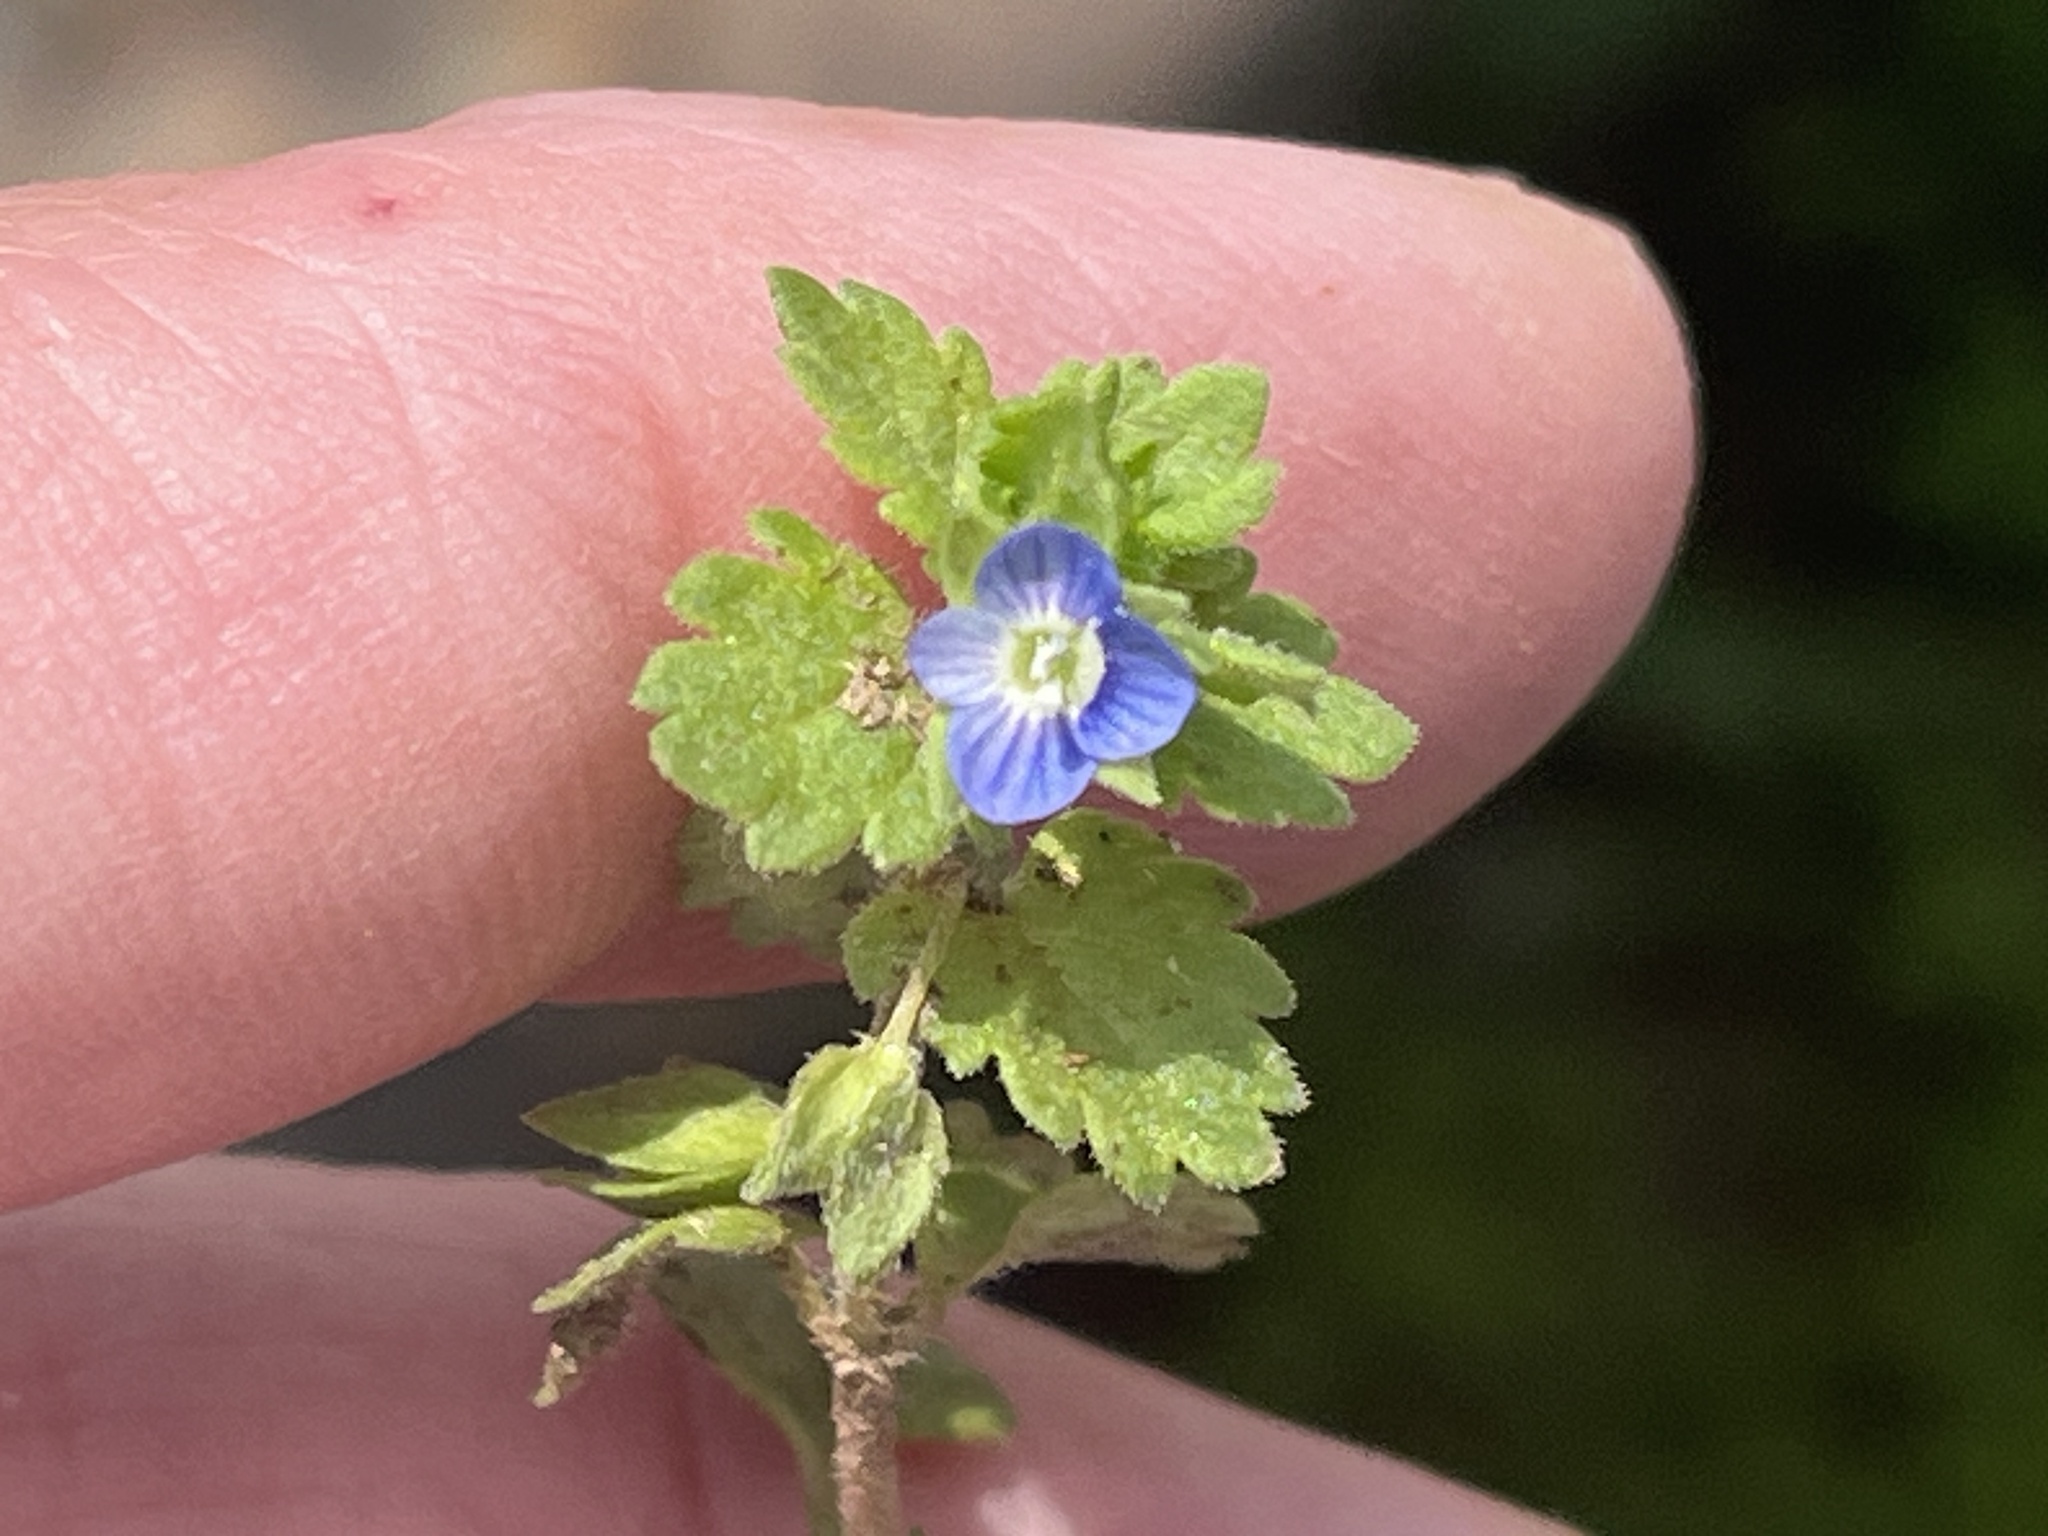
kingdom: Plantae
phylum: Tracheophyta
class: Magnoliopsida
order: Lamiales
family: Plantaginaceae
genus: Veronica
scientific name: Veronica polita
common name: Grey field-speedwell
